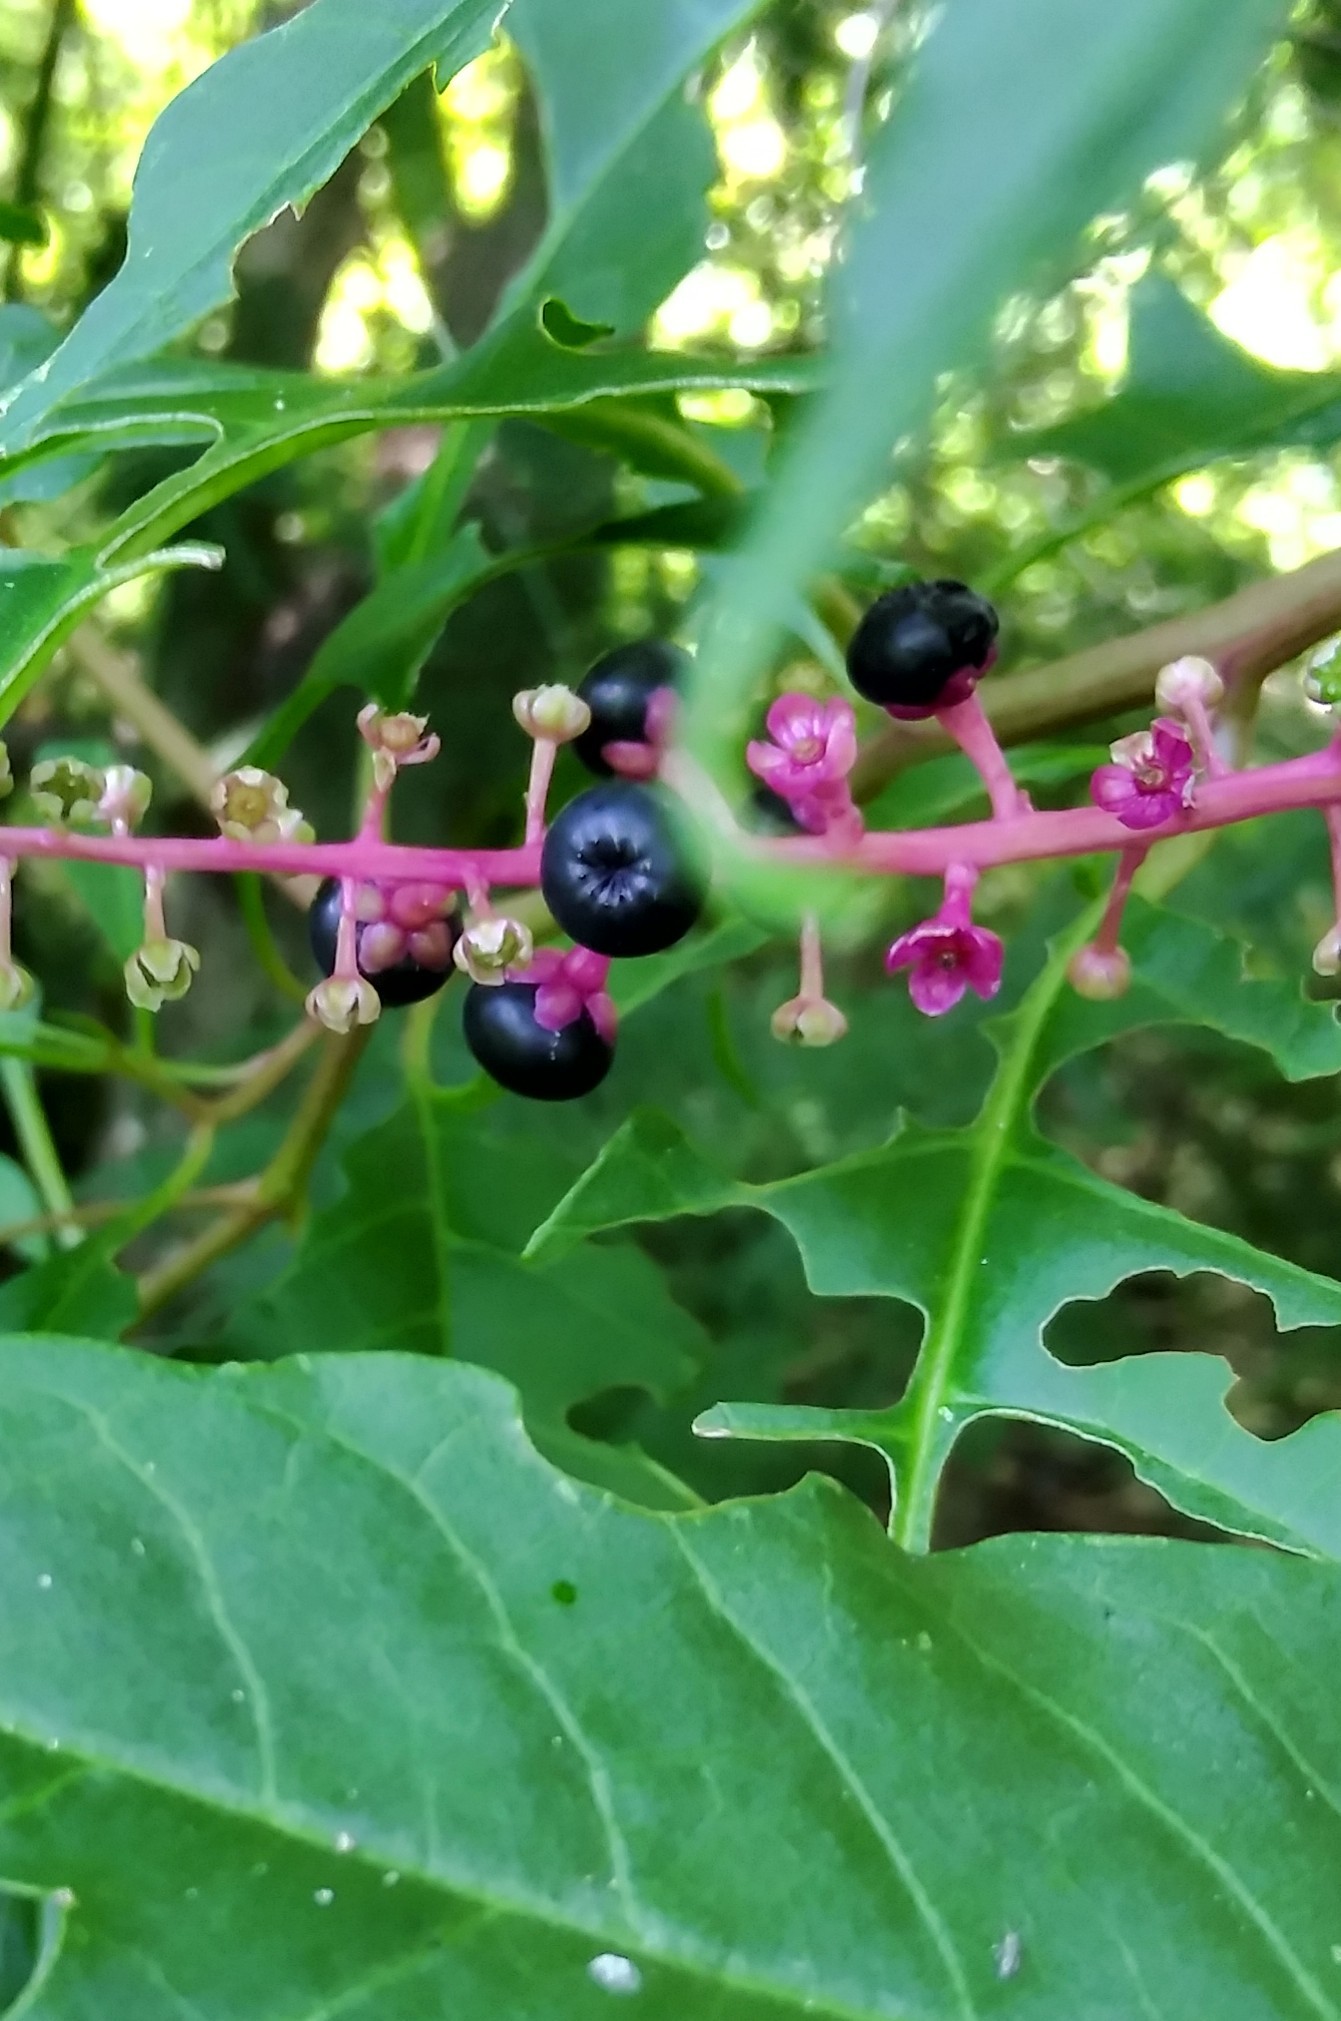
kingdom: Plantae
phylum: Tracheophyta
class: Magnoliopsida
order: Caryophyllales
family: Phytolaccaceae
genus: Phytolacca
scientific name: Phytolacca americana
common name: American pokeweed
